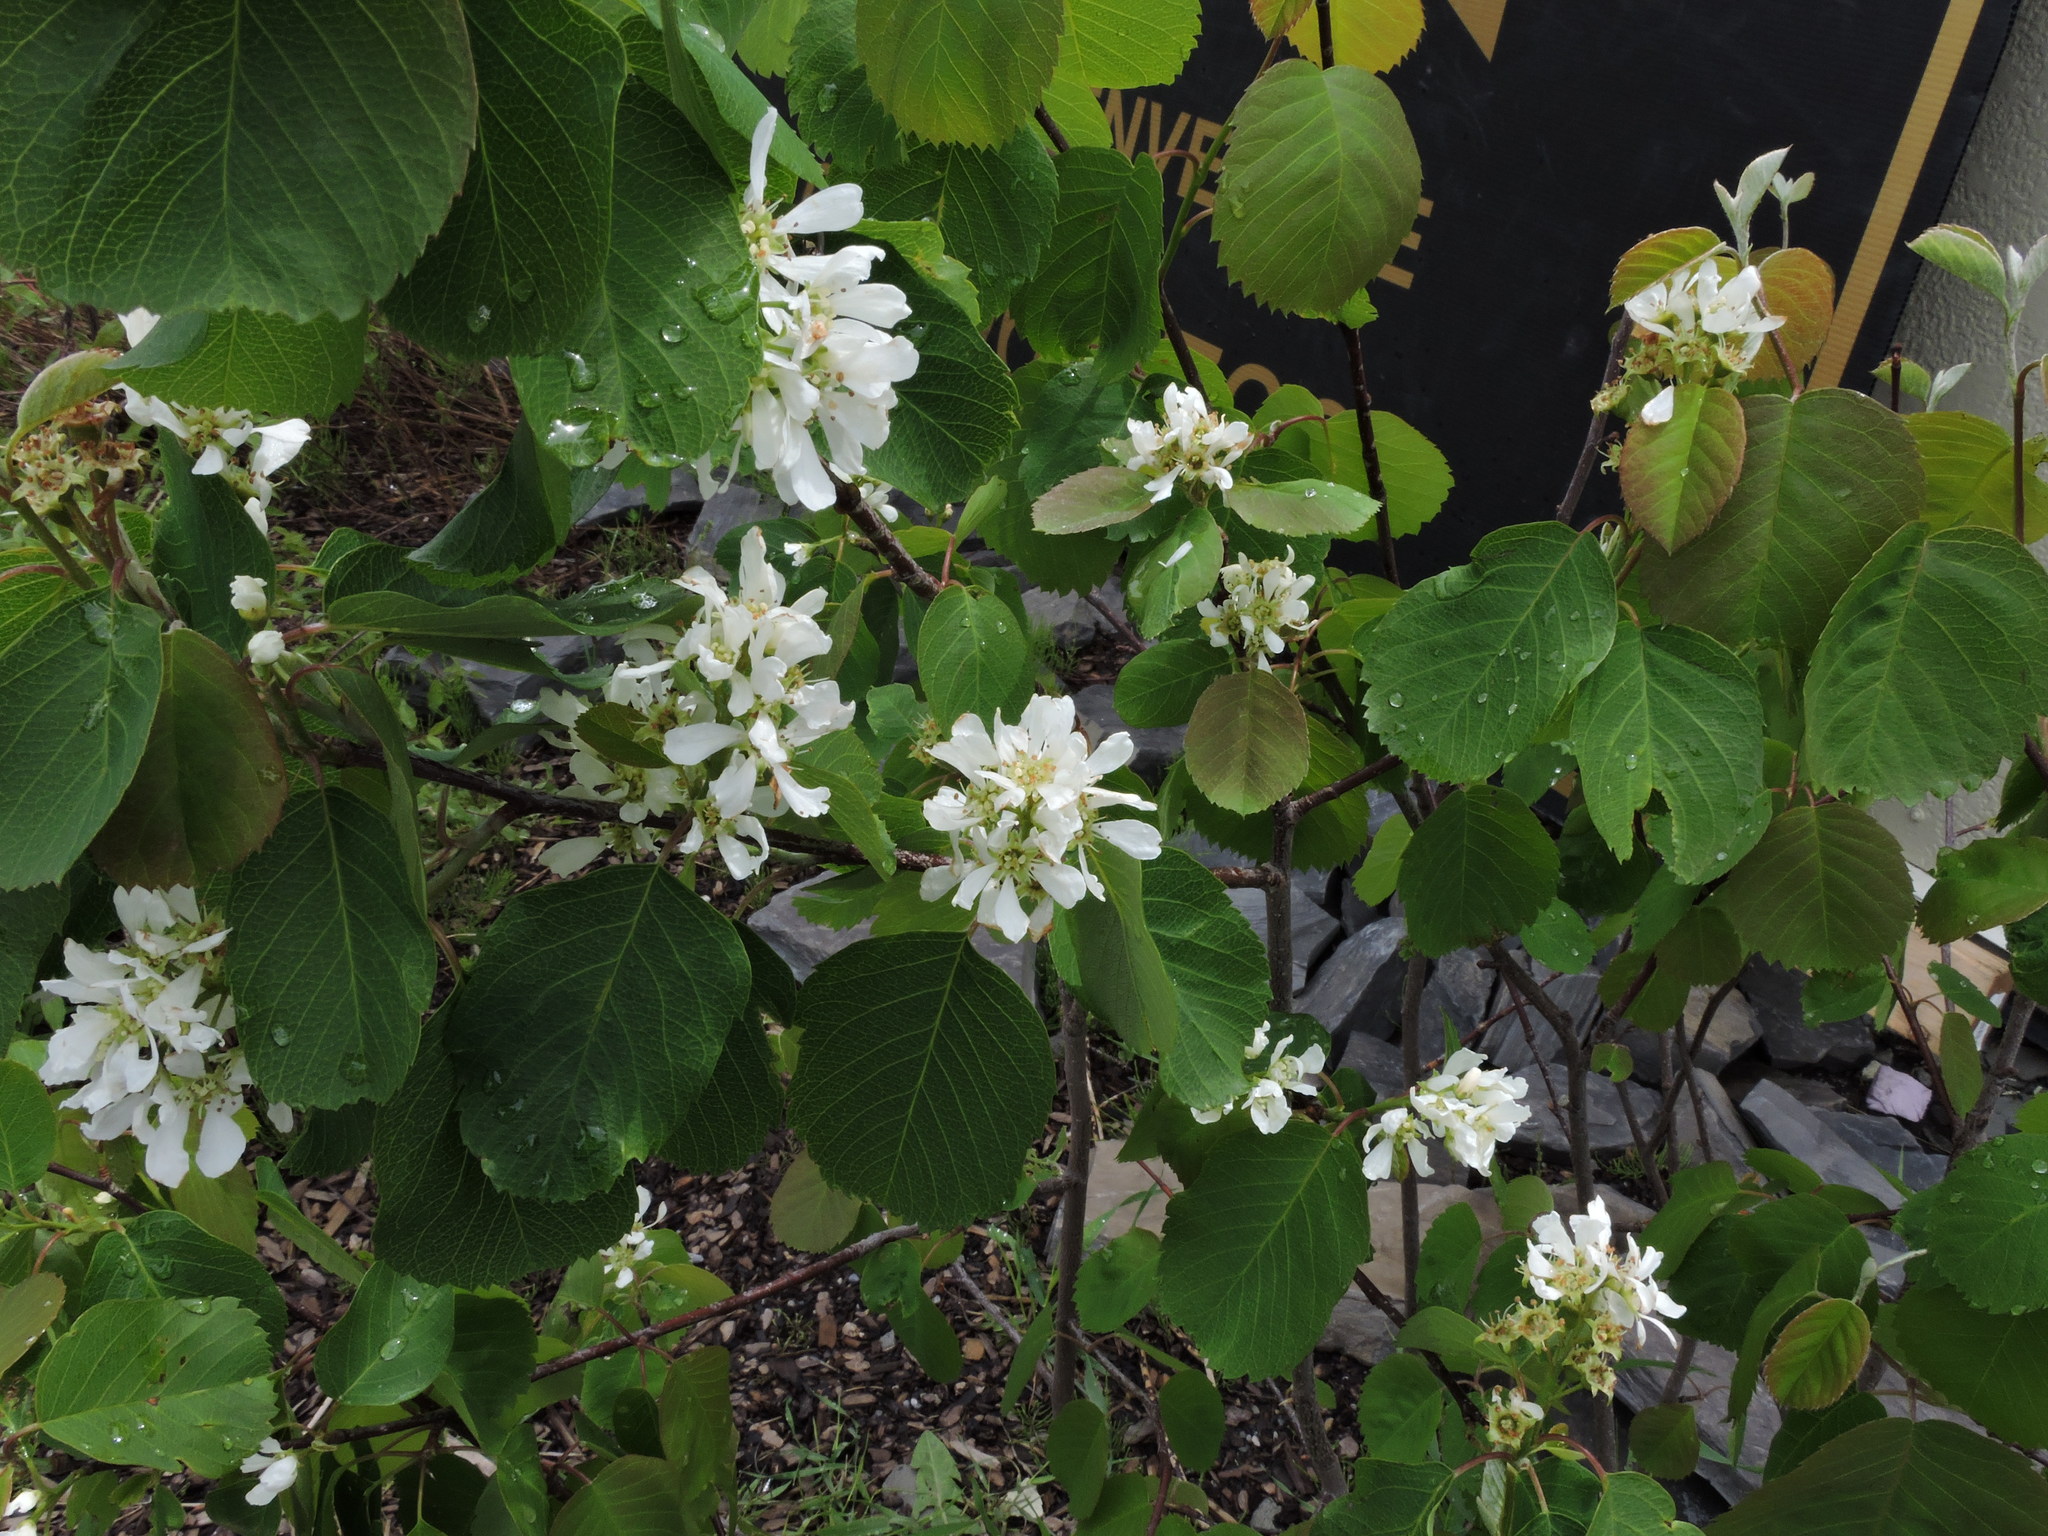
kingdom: Plantae
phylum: Tracheophyta
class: Magnoliopsida
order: Rosales
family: Rosaceae
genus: Amelanchier
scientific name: Amelanchier alnifolia
